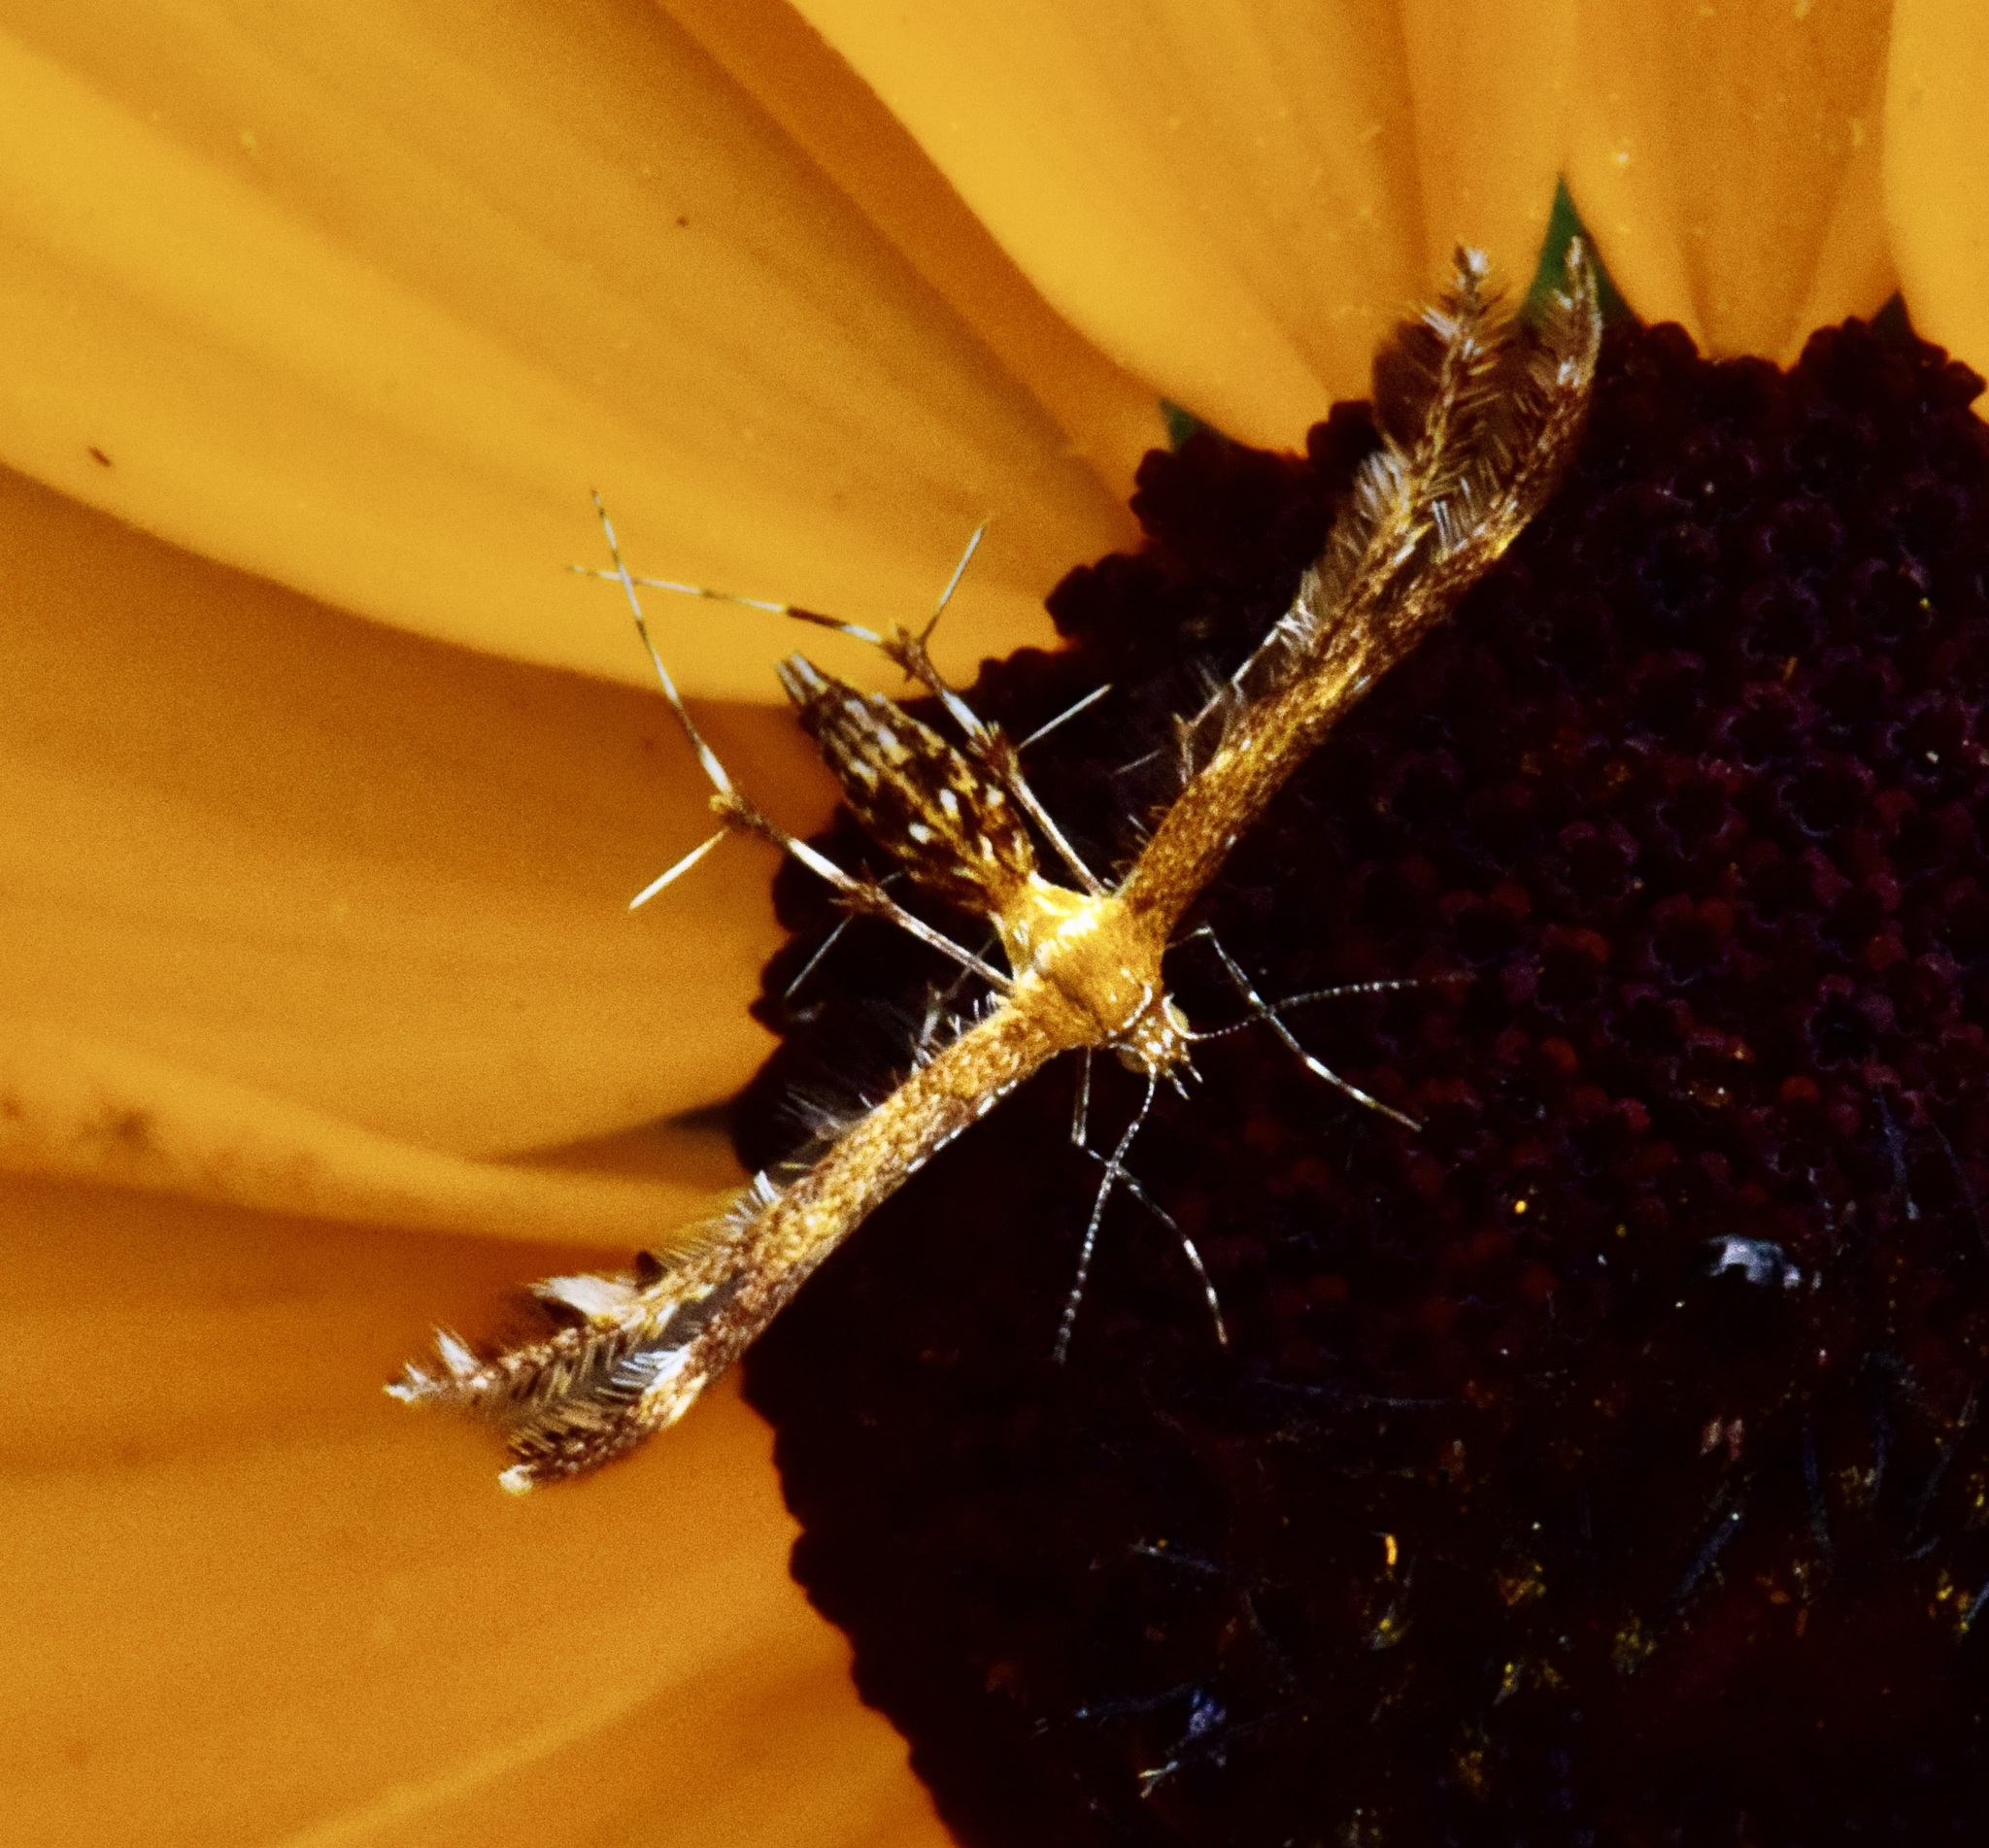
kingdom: Animalia
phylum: Arthropoda
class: Insecta
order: Lepidoptera
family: Pterophoridae
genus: Dejongia
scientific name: Dejongia lobidactylus
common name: Lobed plume moth
